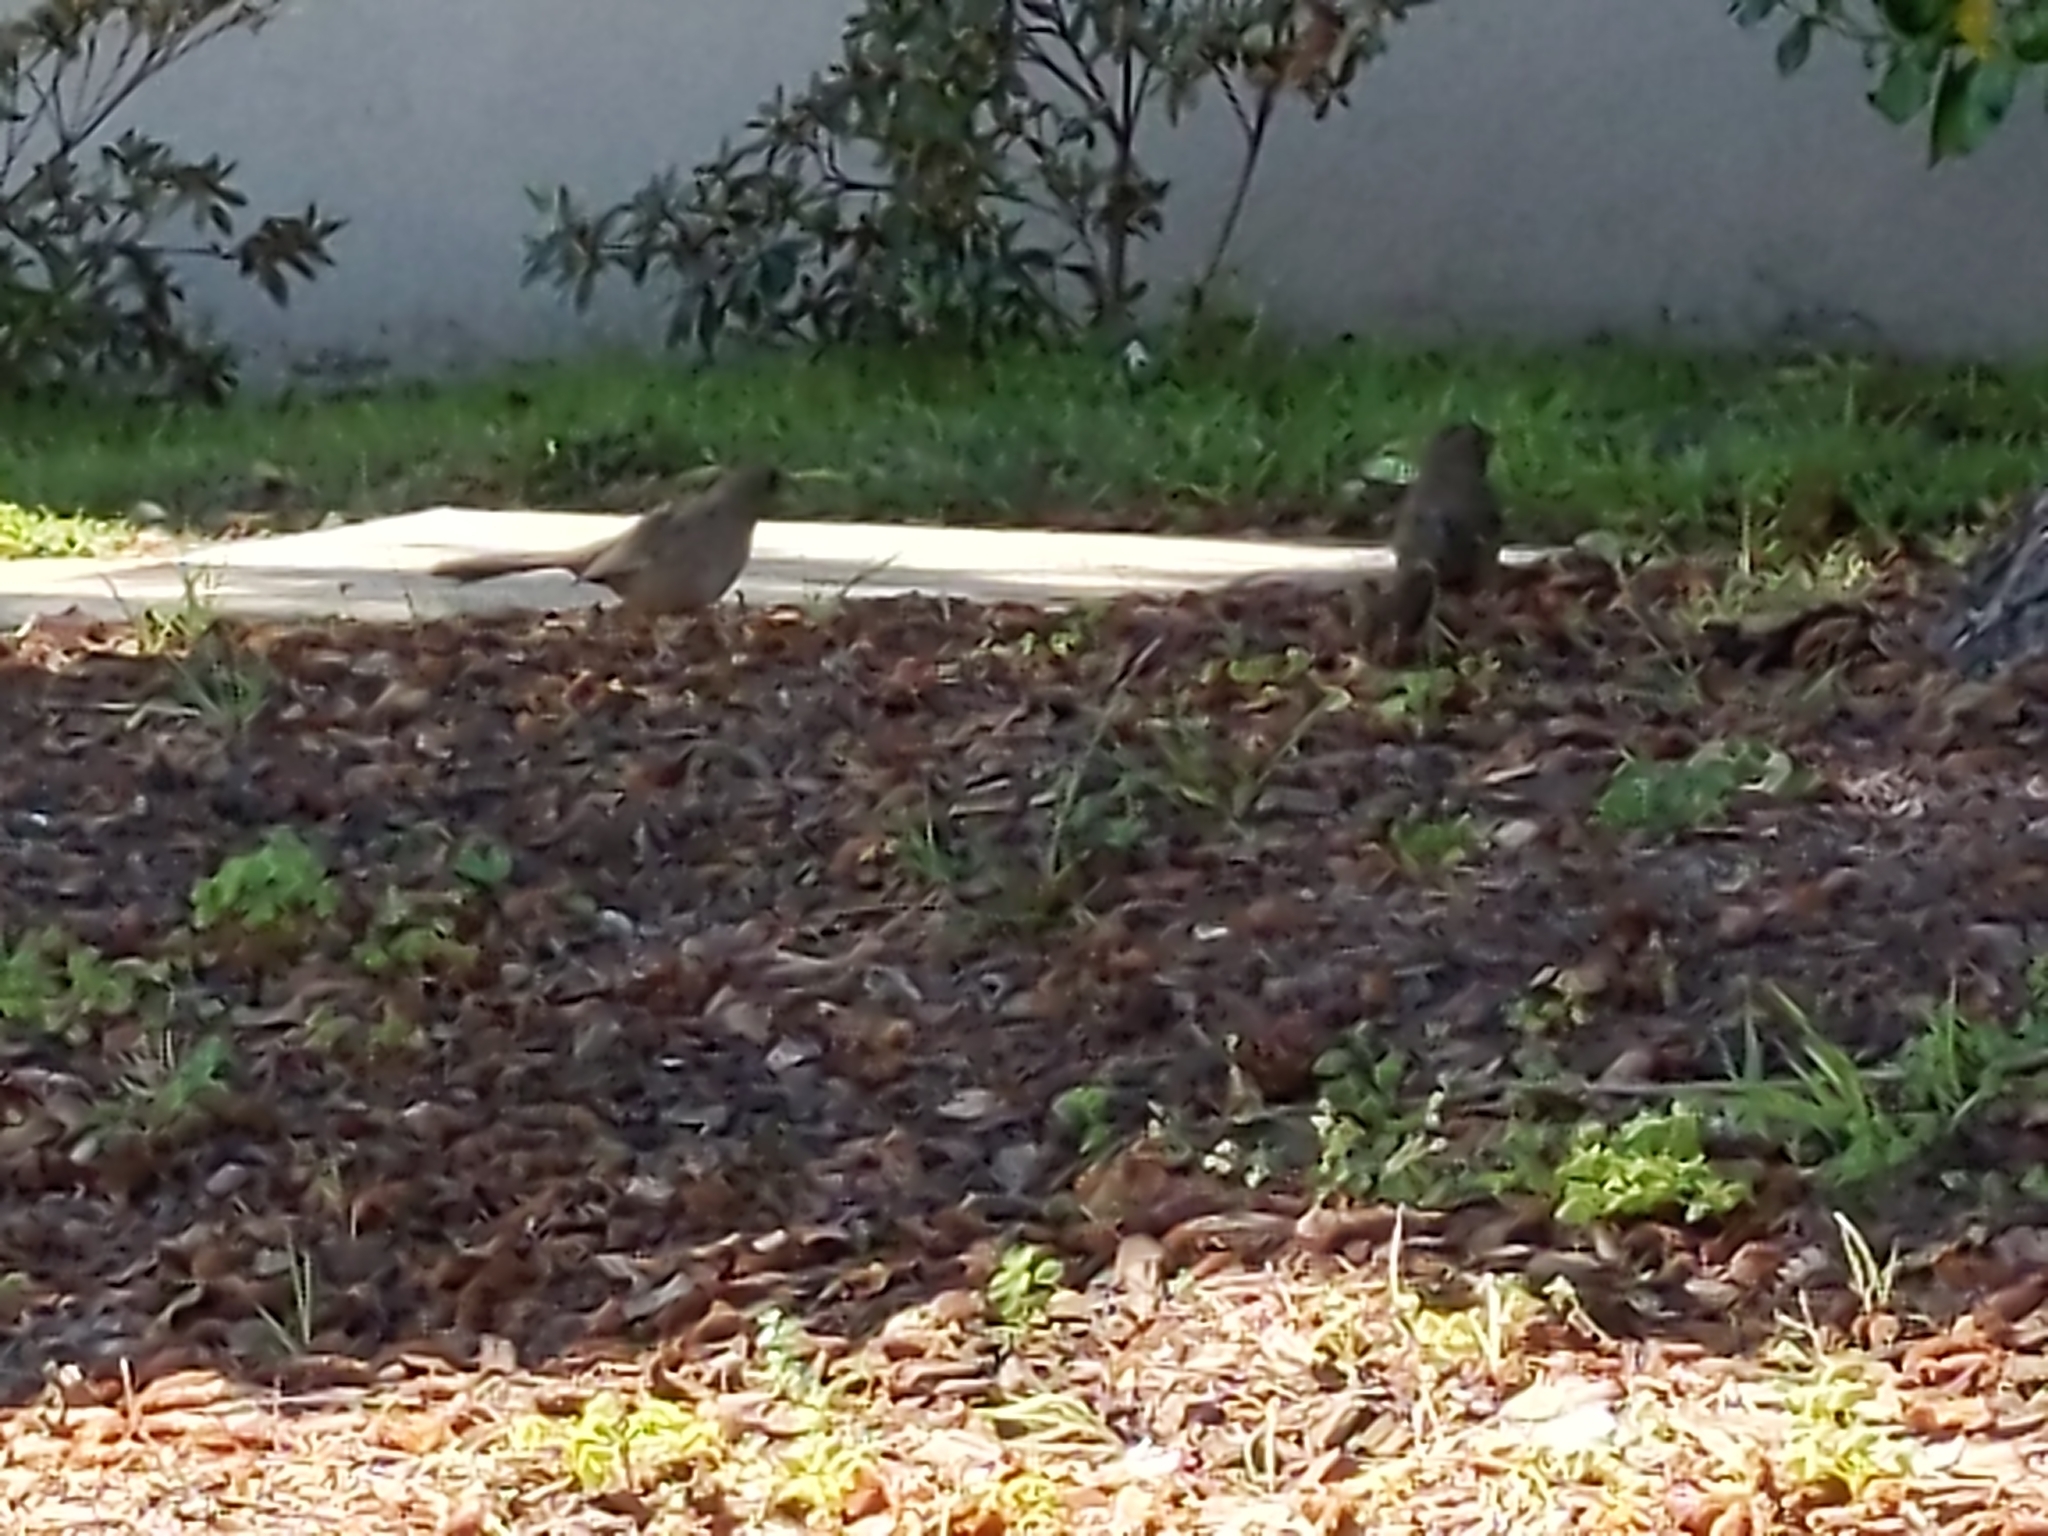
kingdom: Animalia
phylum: Chordata
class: Aves
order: Passeriformes
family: Passerellidae
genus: Melozone
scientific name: Melozone crissalis
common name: California towhee
